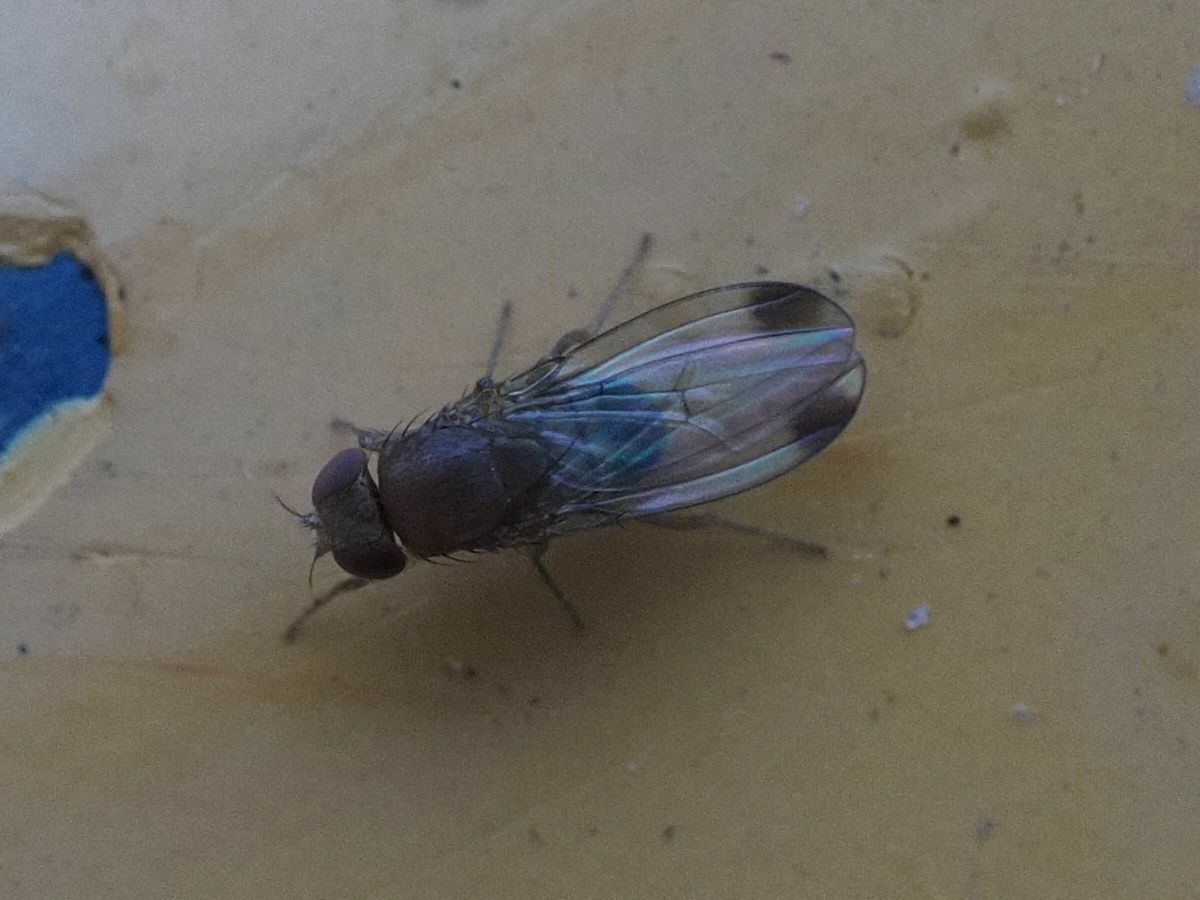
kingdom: Animalia
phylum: Arthropoda
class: Insecta
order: Diptera
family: Drosophilidae
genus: Drosophila
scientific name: Drosophila suzukii
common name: Spotted-wing drosophila
